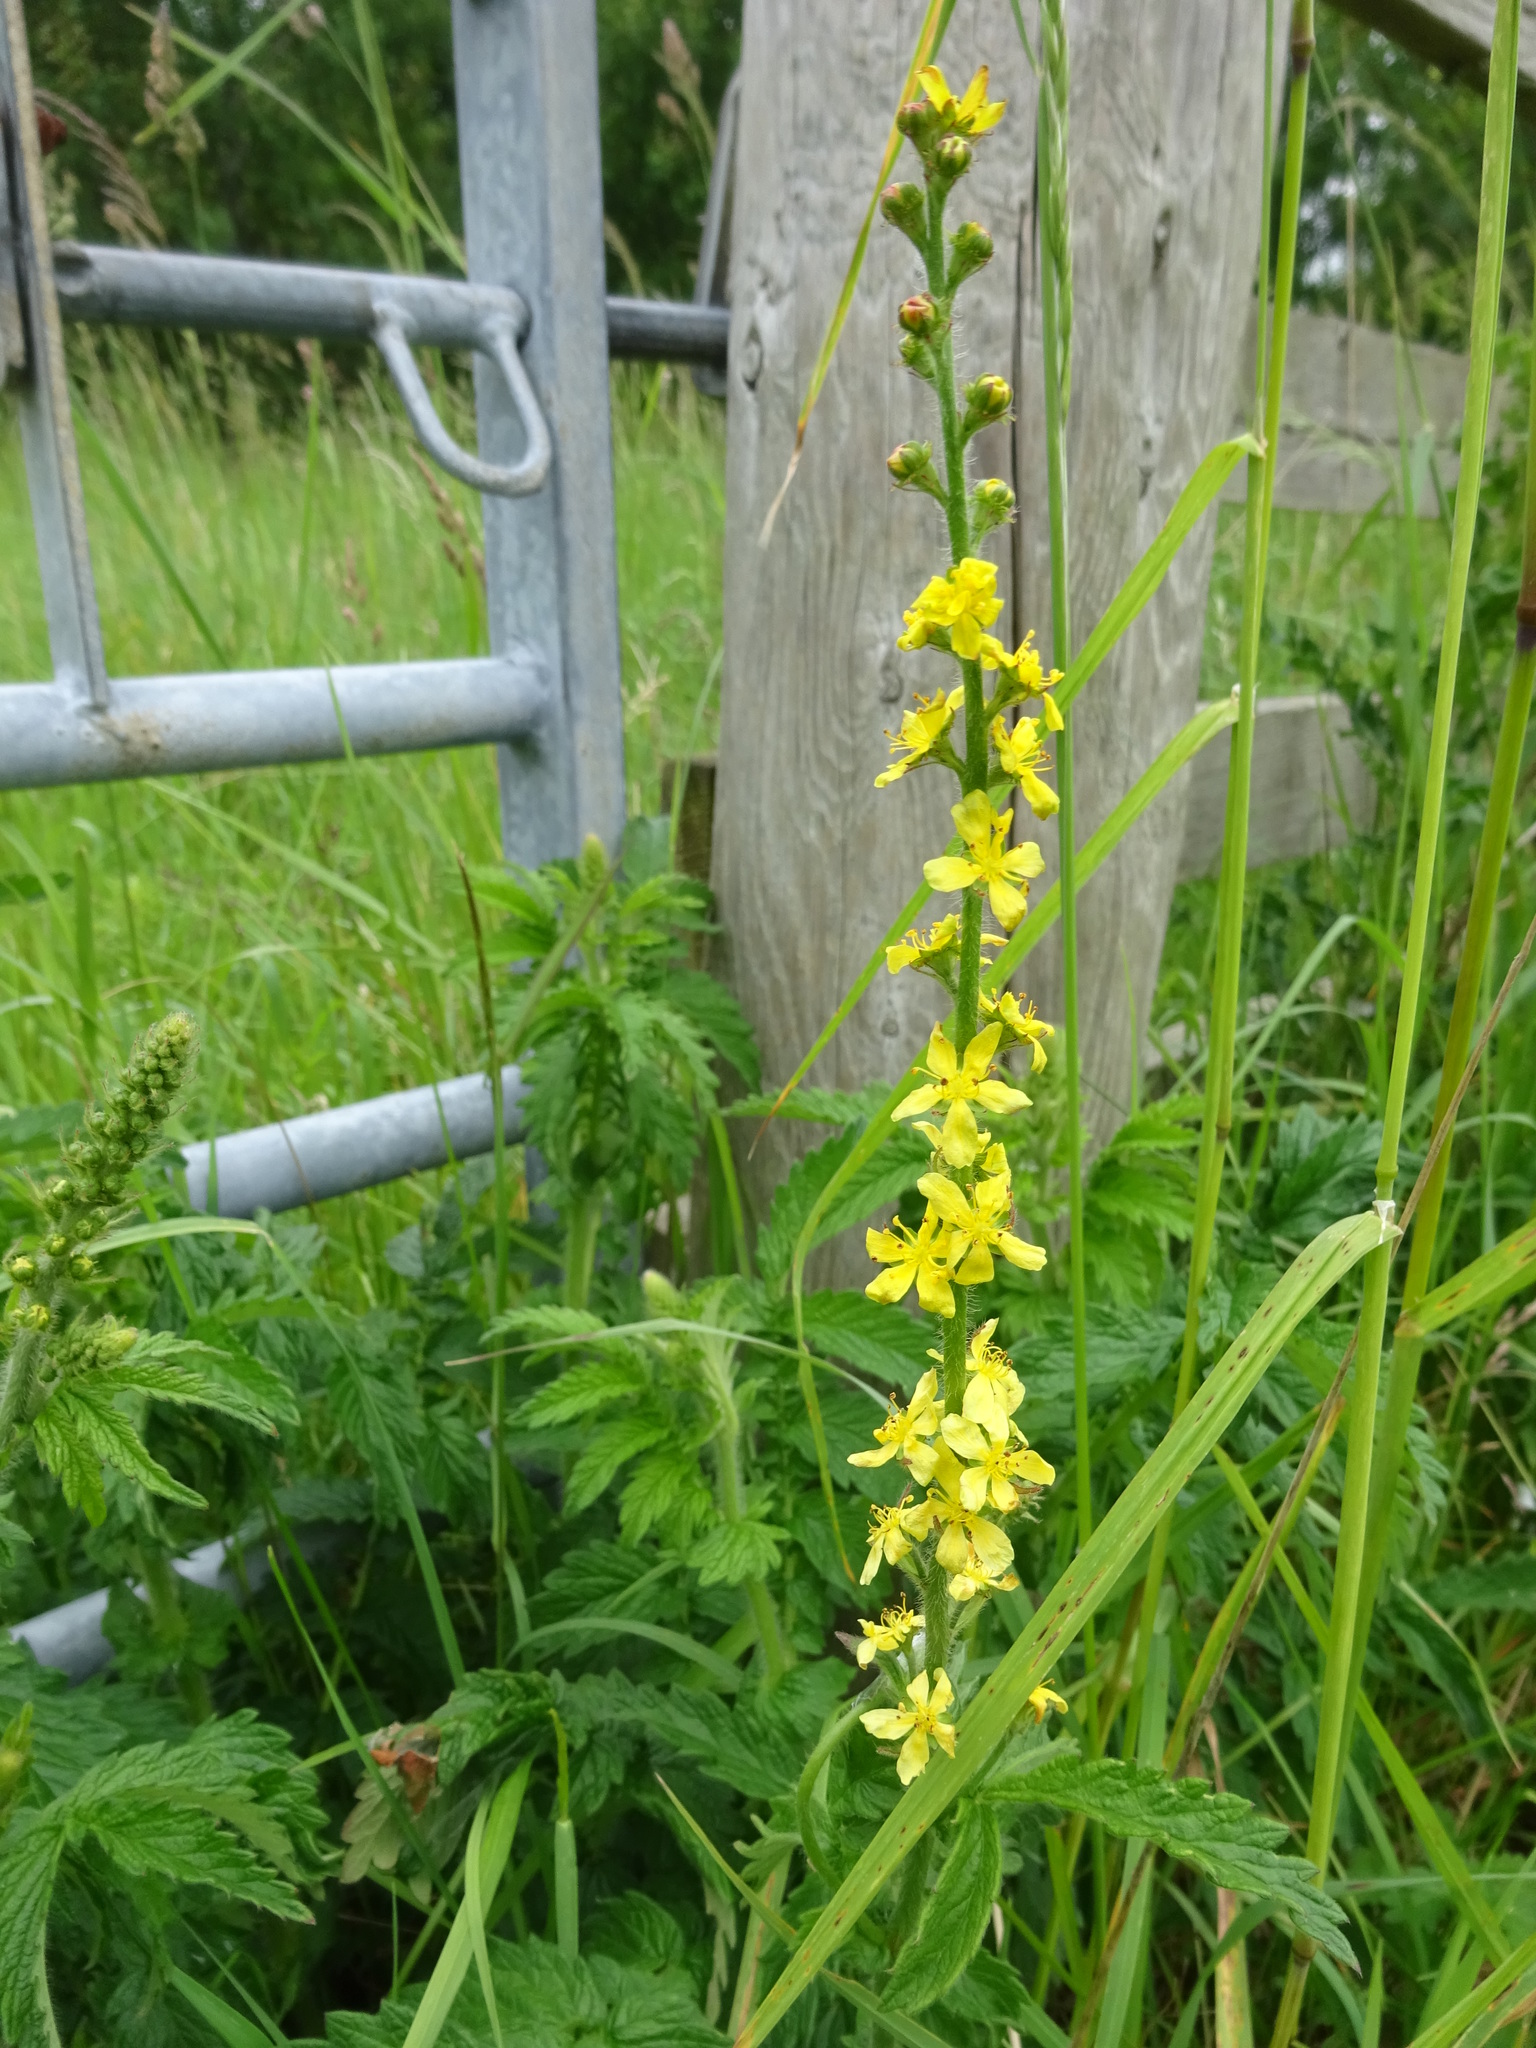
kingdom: Plantae
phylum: Tracheophyta
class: Magnoliopsida
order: Rosales
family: Rosaceae
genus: Agrimonia
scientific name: Agrimonia eupatoria
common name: Agrimony
